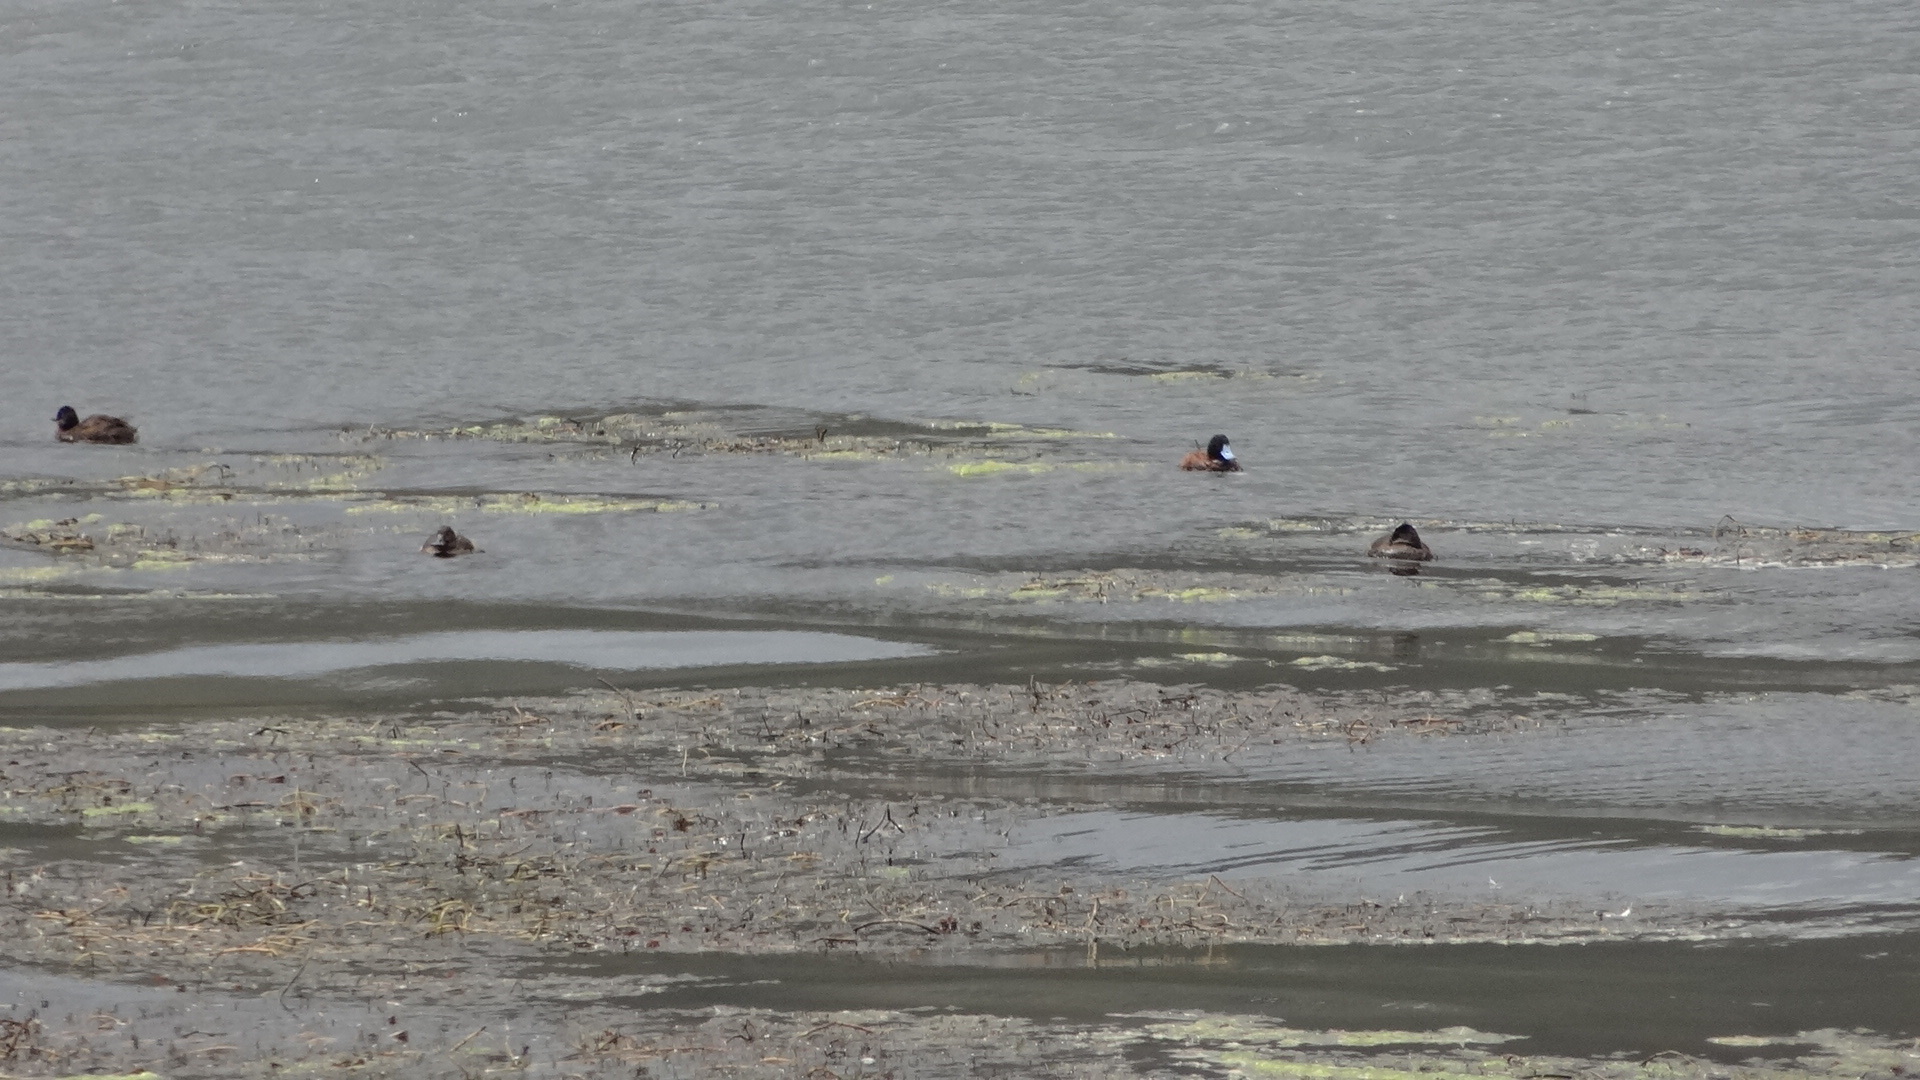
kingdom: Animalia
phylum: Chordata
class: Aves
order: Anseriformes
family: Anatidae
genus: Anas
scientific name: Anas andium
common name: Andean teal
